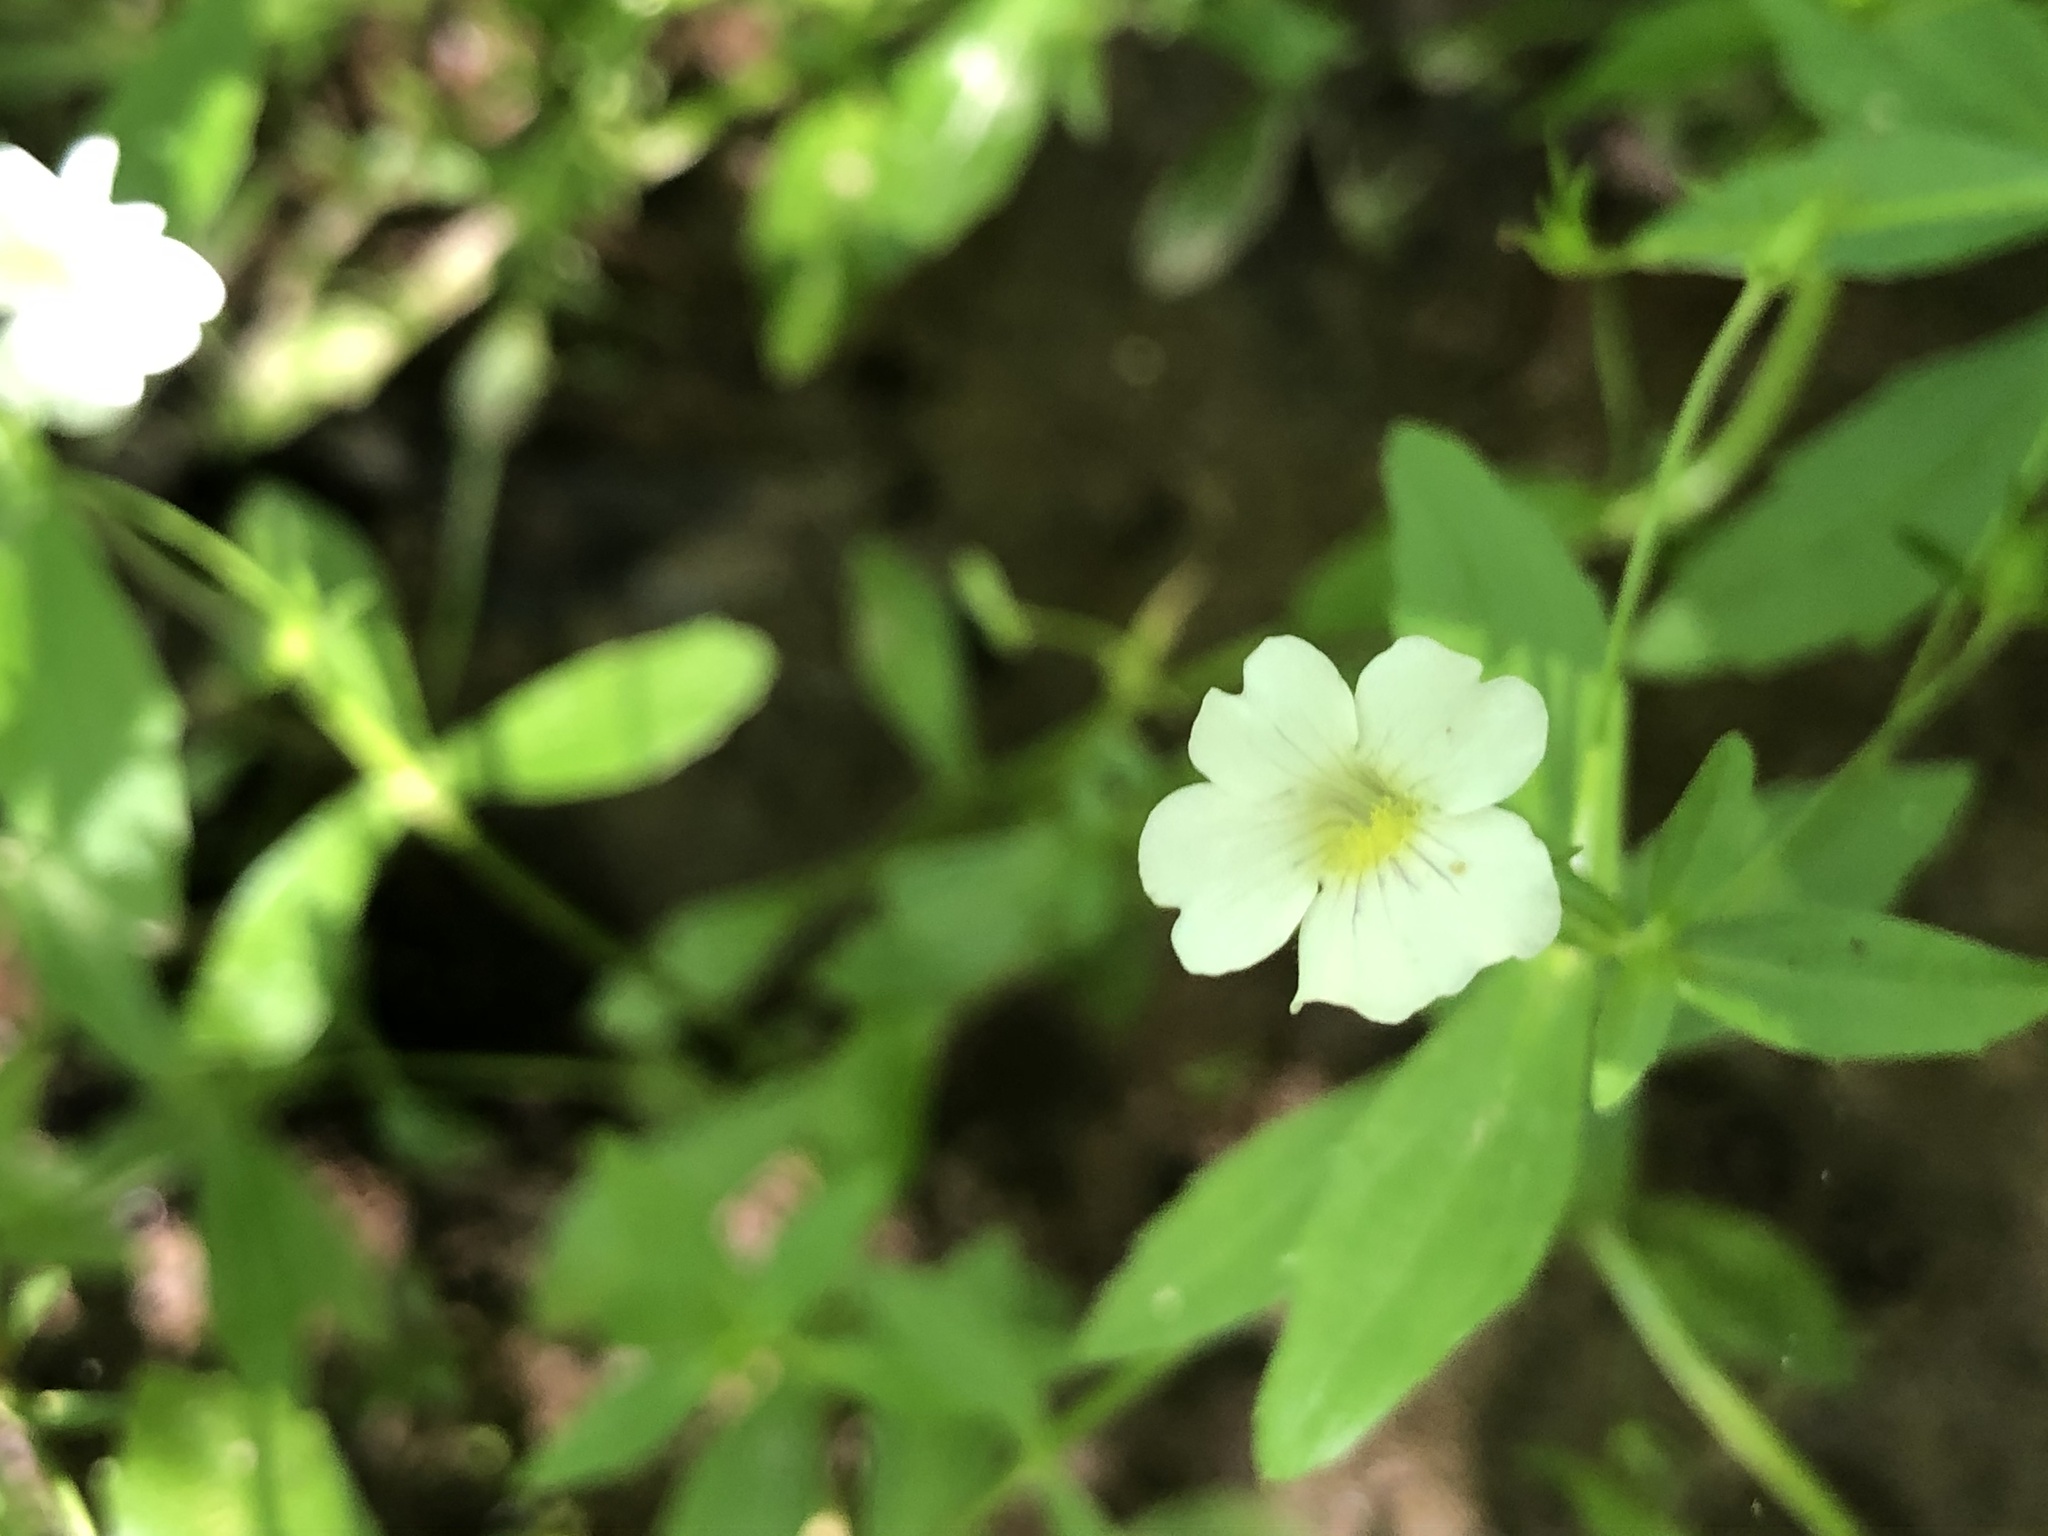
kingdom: Plantae
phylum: Tracheophyta
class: Magnoliopsida
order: Lamiales
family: Plantaginaceae
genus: Gratiola
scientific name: Gratiola floridana
